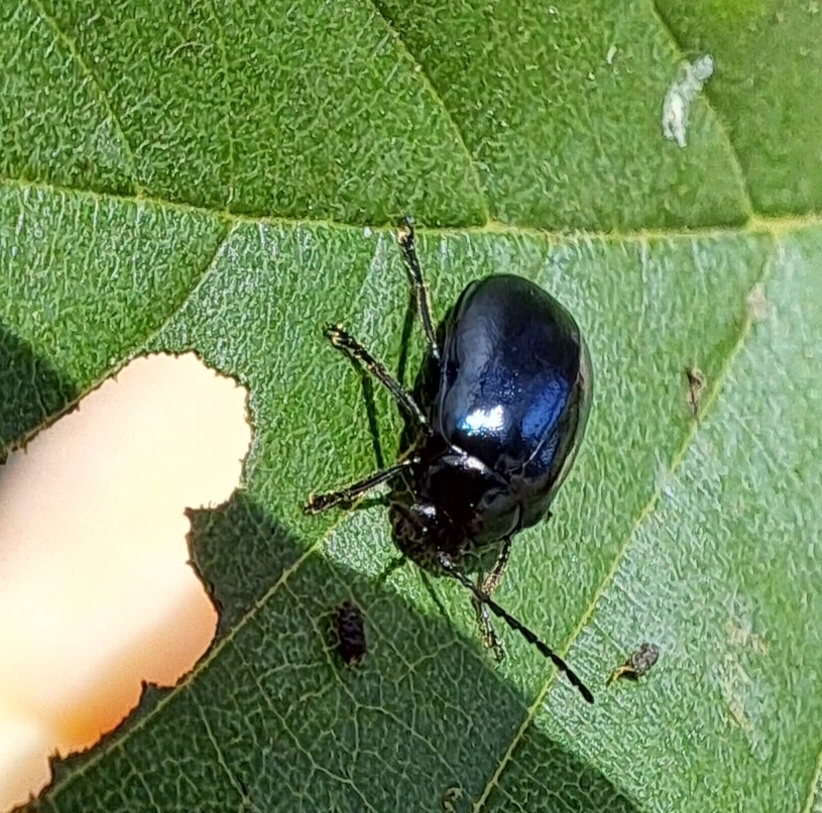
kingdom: Animalia
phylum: Arthropoda
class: Insecta
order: Coleoptera
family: Chrysomelidae
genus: Agelastica
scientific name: Agelastica alni
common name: Alder leaf beetle
